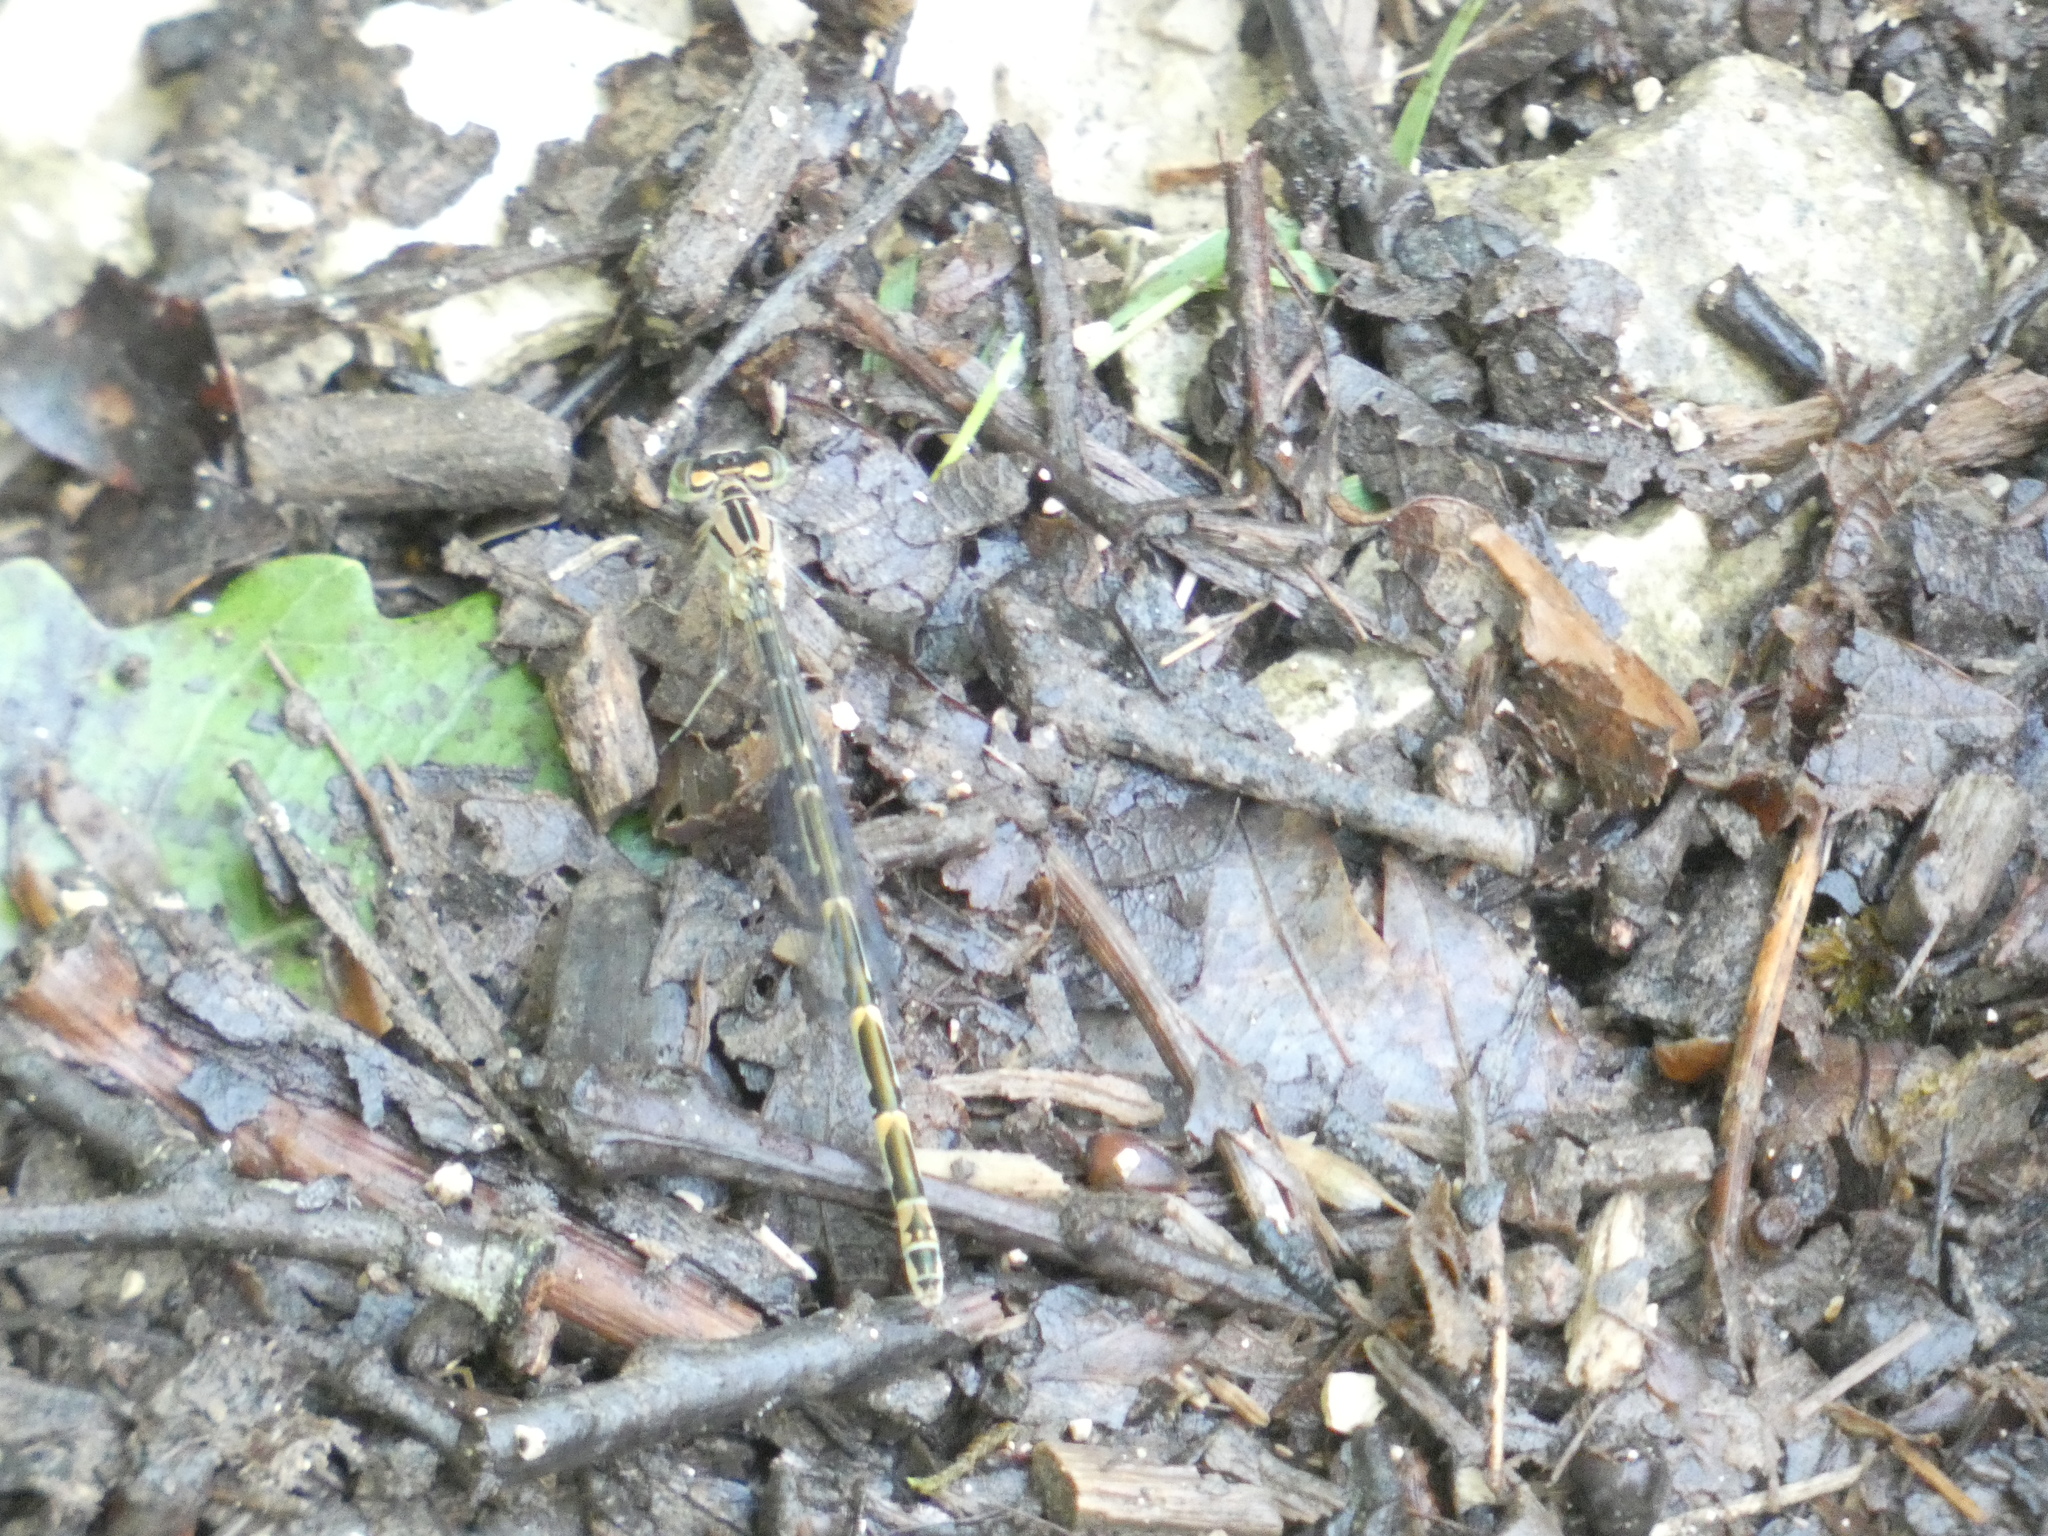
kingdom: Animalia
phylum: Arthropoda
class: Insecta
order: Odonata
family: Coenagrionidae
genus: Enallagma
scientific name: Enallagma cyathigerum
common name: Common blue damselfly
